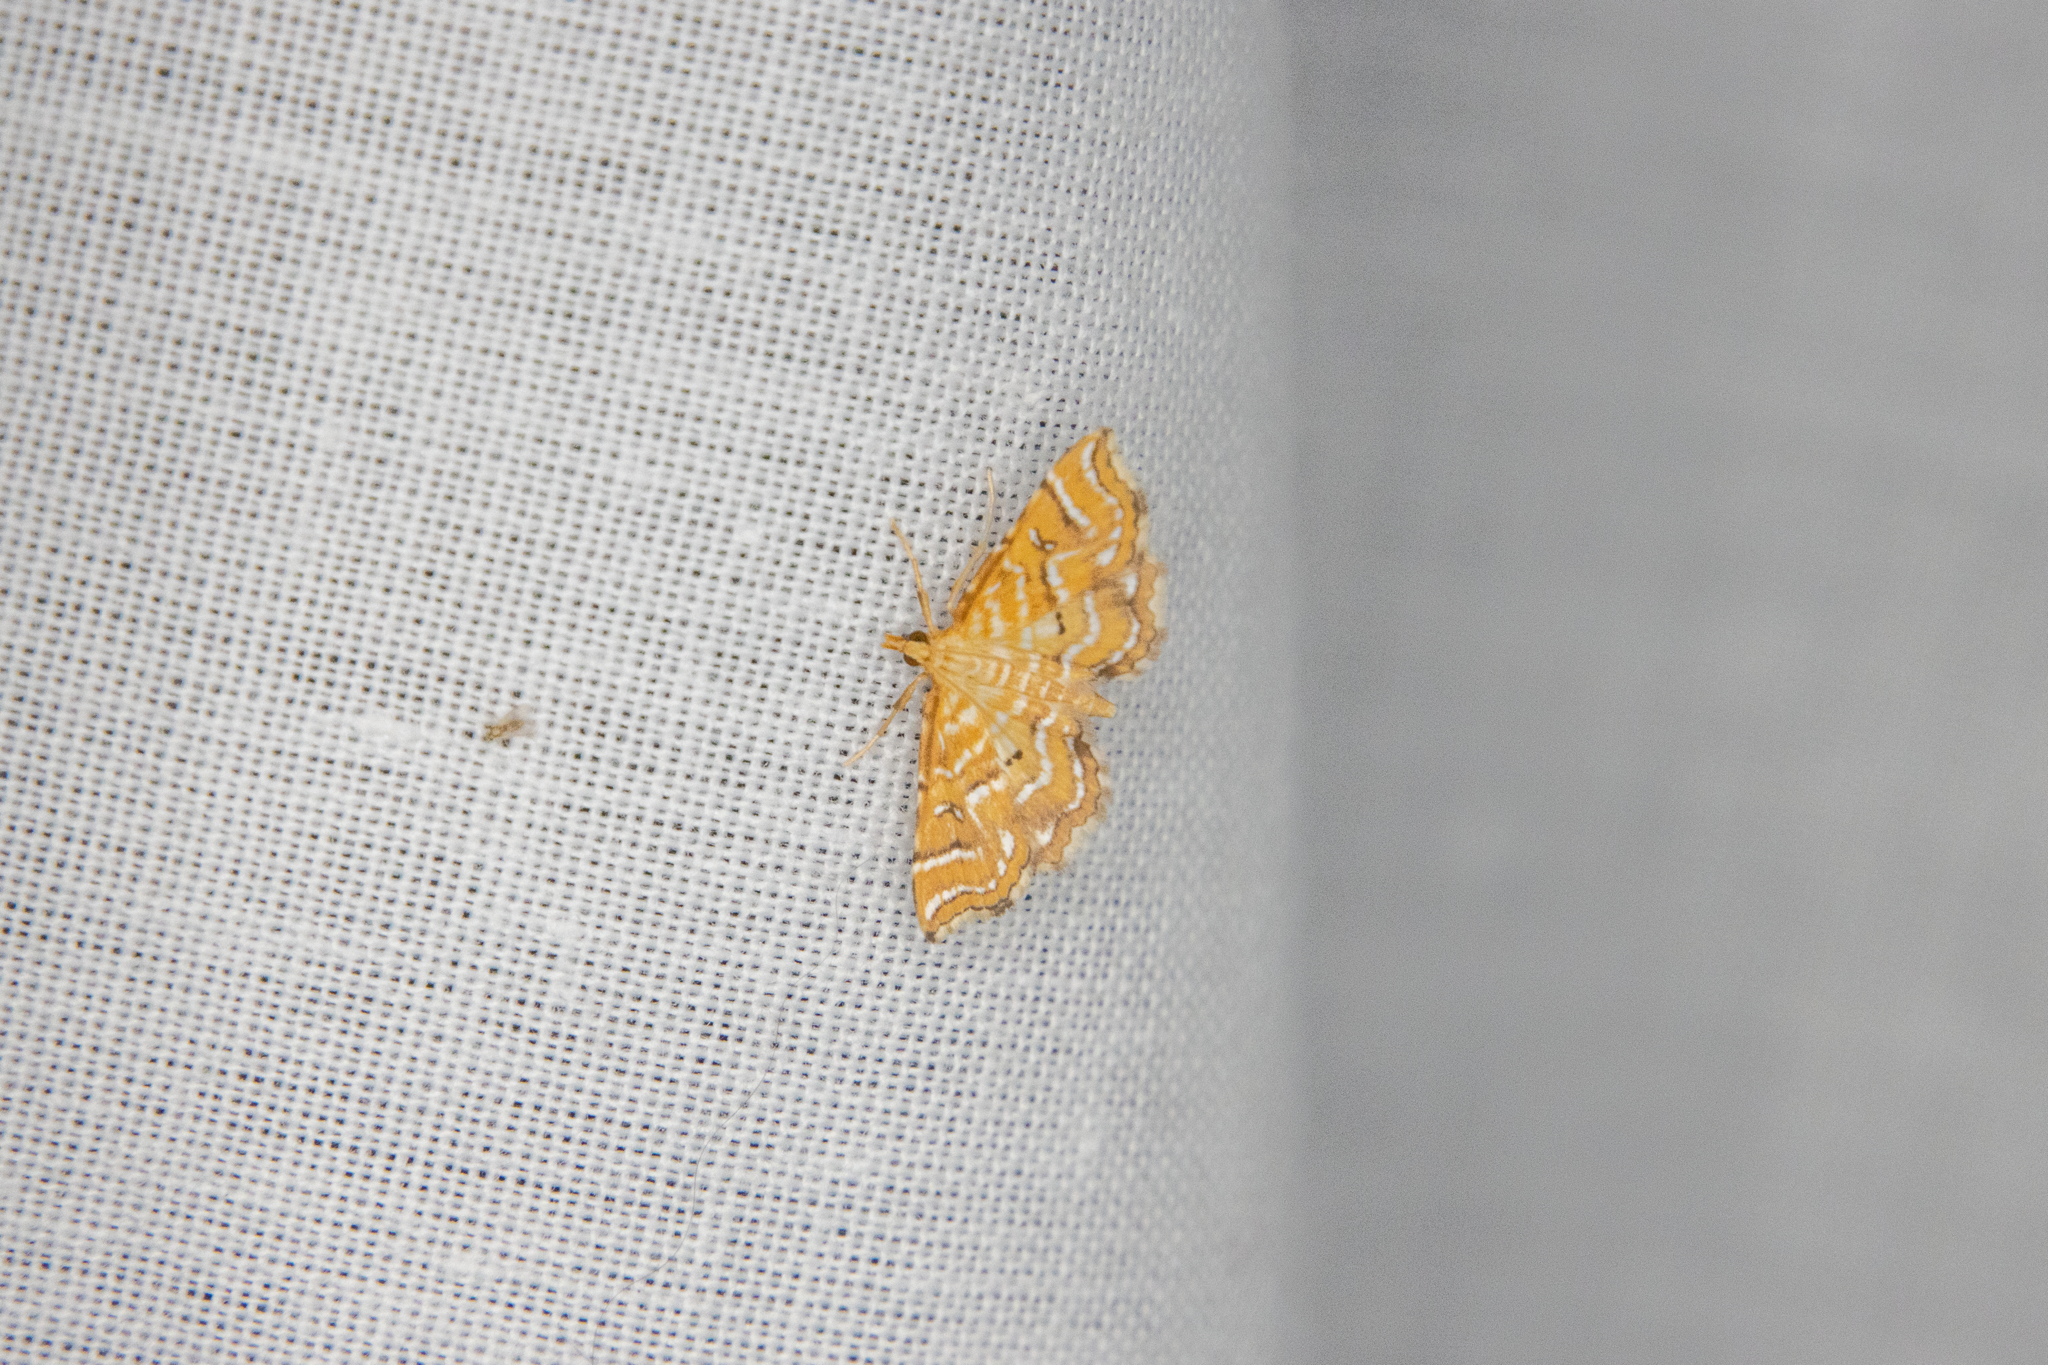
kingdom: Animalia
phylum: Arthropoda
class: Insecta
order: Lepidoptera
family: Pyralidae
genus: Musotima
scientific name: Musotima ochropteralis
